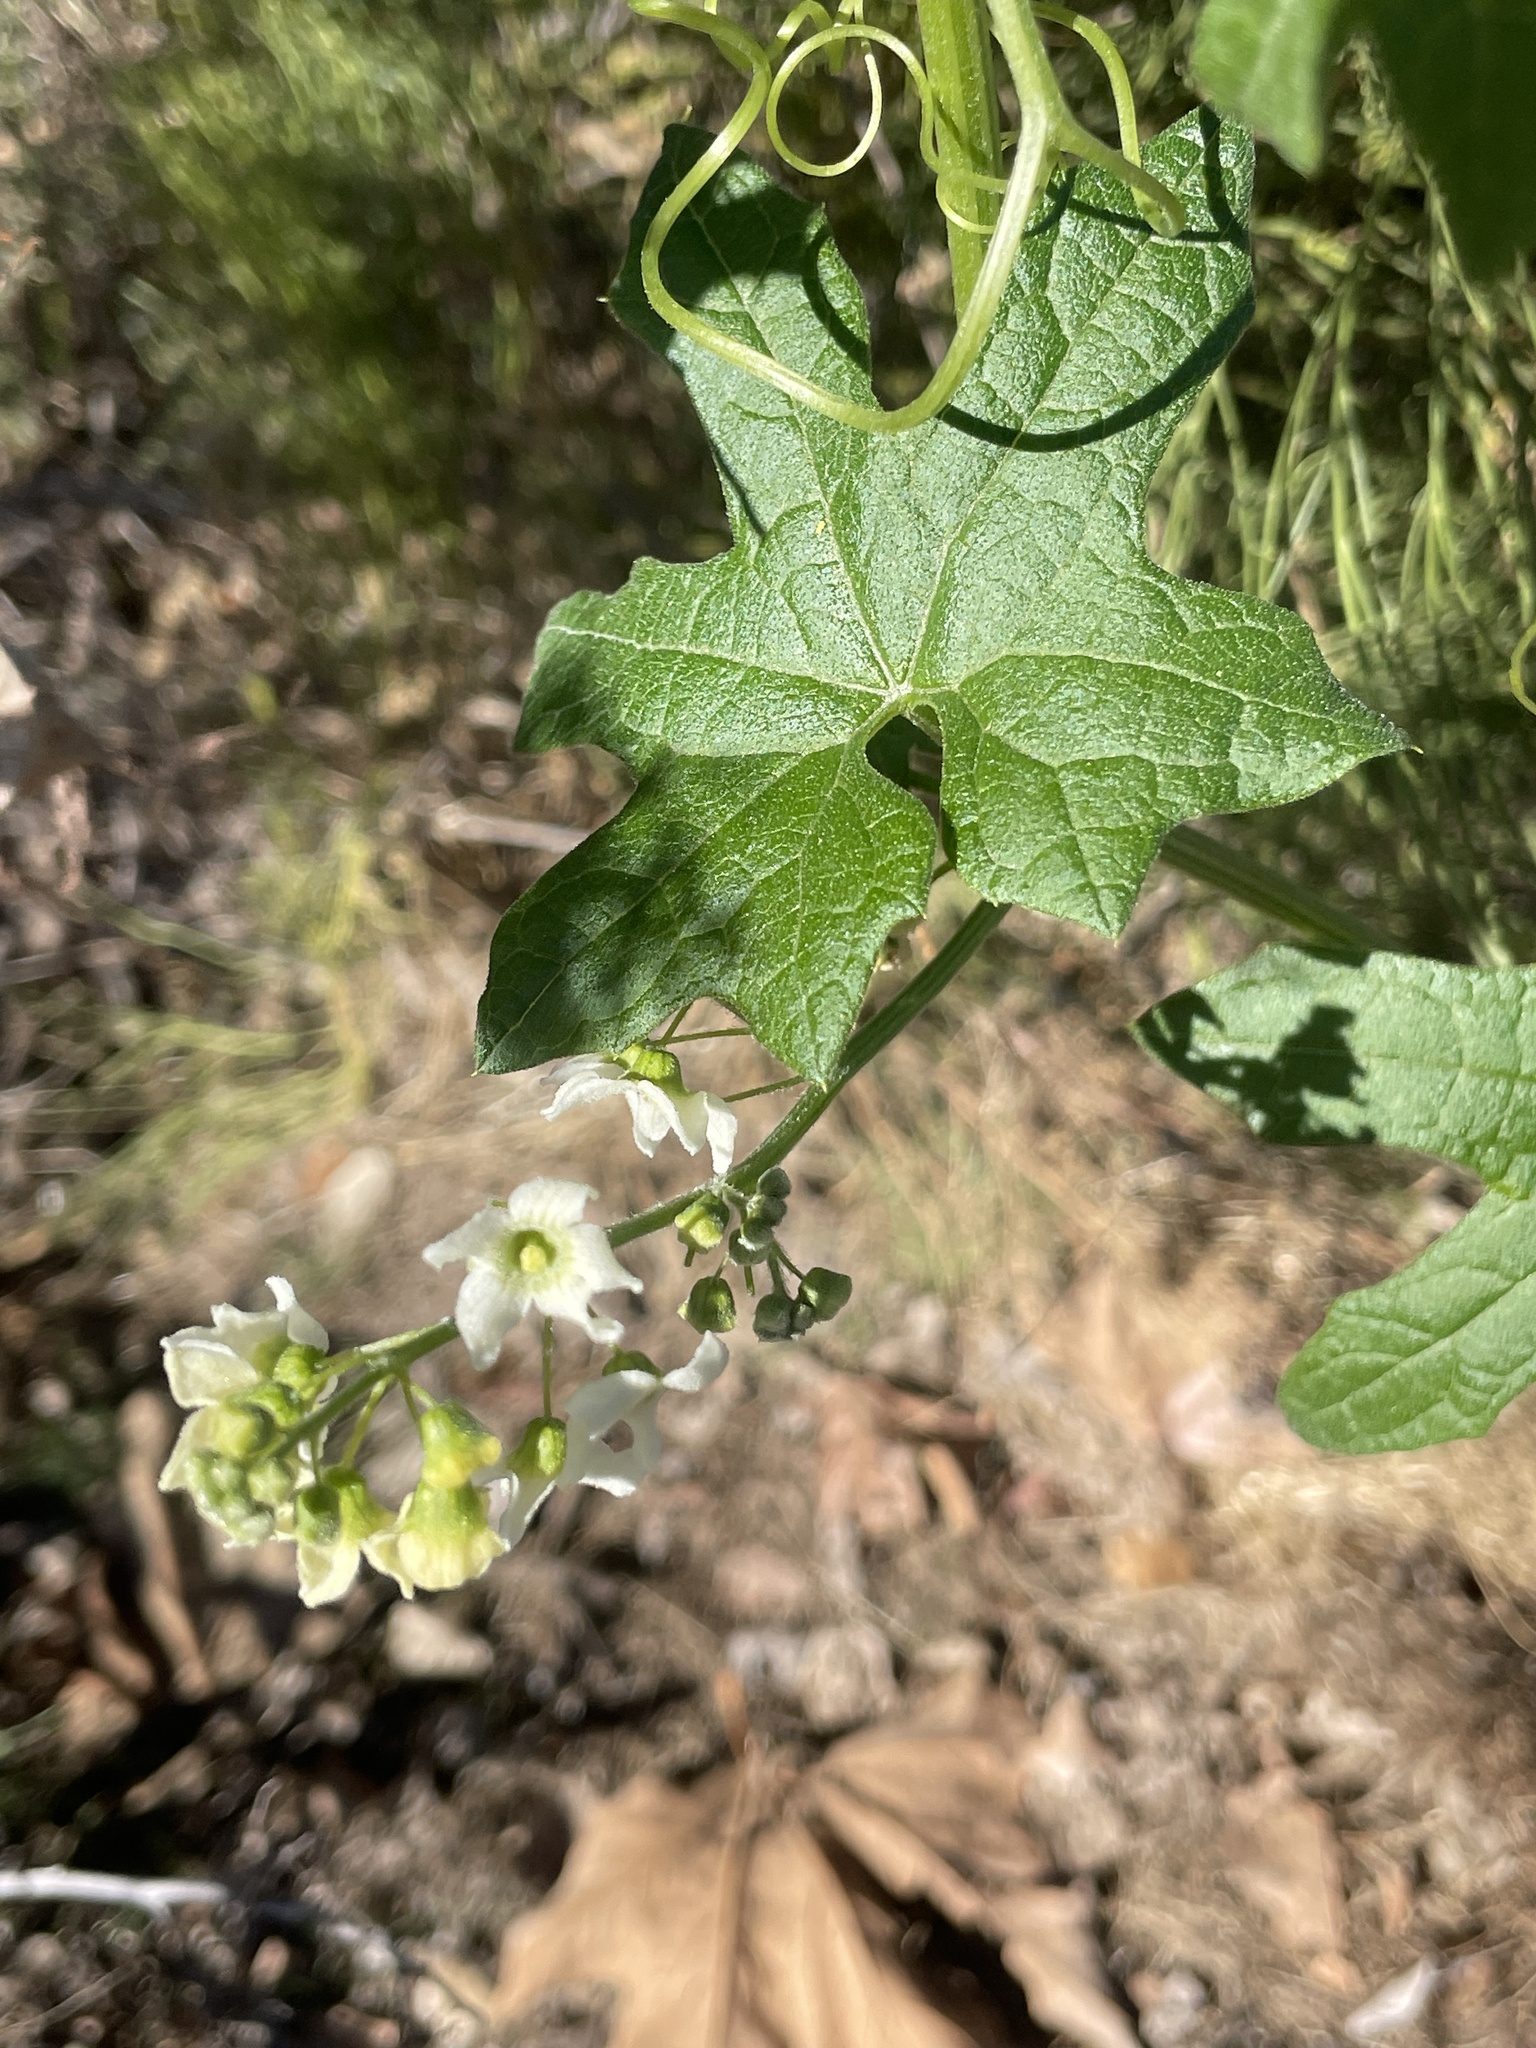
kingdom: Plantae
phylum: Tracheophyta
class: Magnoliopsida
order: Cucurbitales
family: Cucurbitaceae
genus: Marah
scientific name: Marah macrocarpa
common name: Cucamonga manroot
